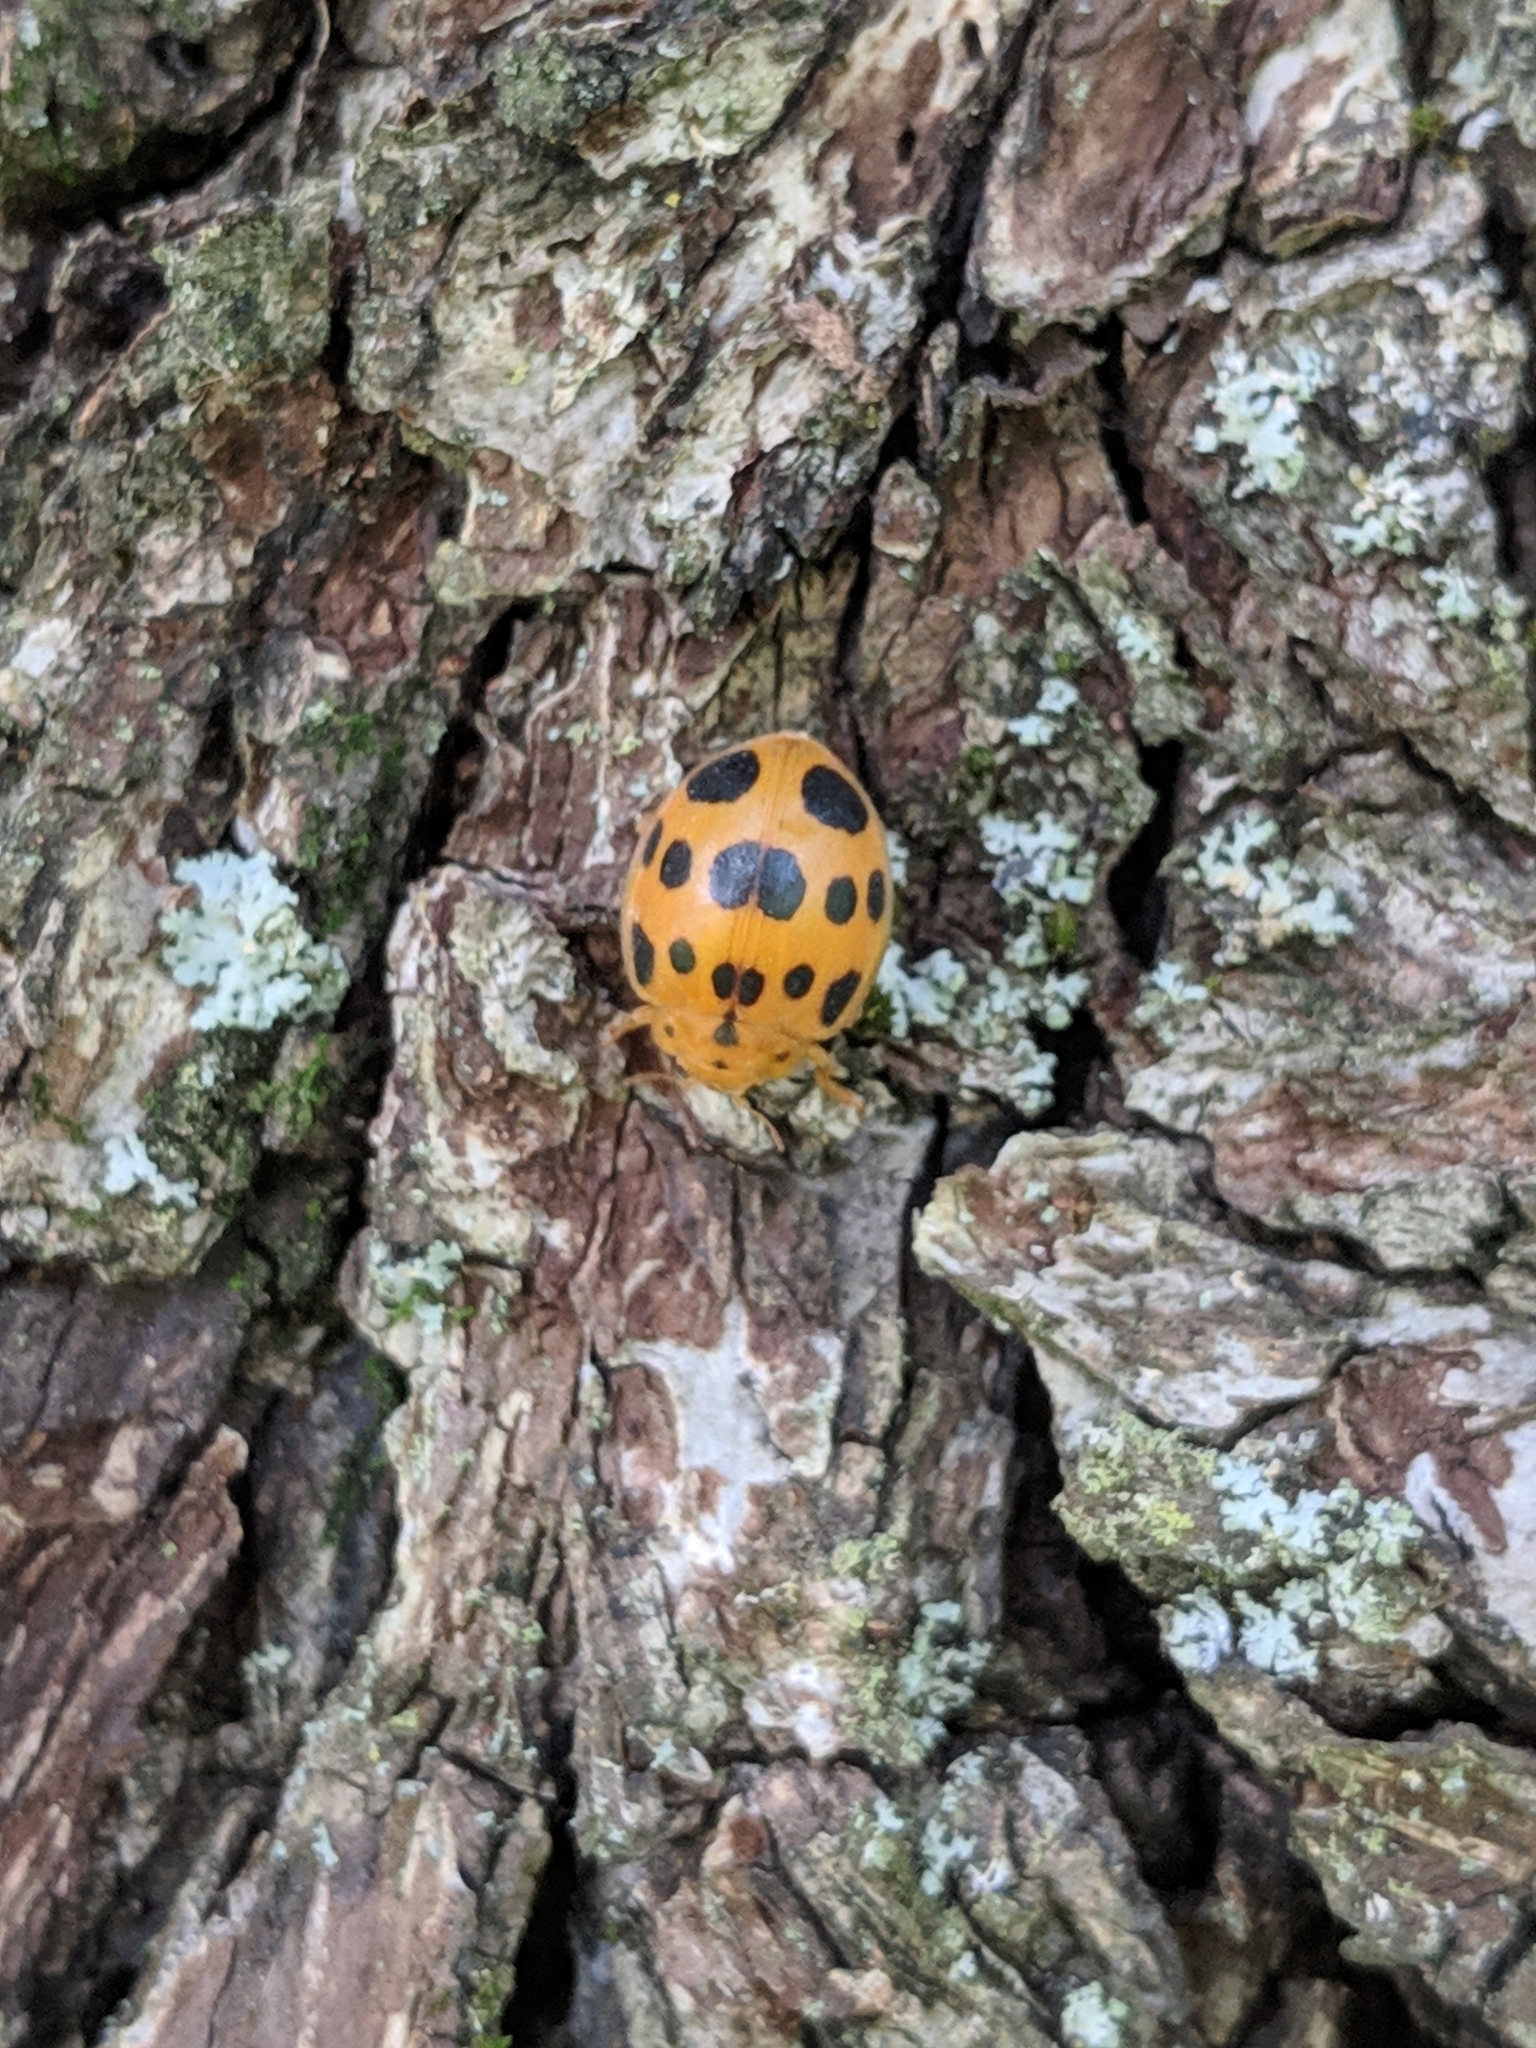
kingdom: Animalia
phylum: Arthropoda
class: Insecta
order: Coleoptera
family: Coccinellidae
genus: Epilachna
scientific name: Epilachna borealis
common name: Squash beetle
